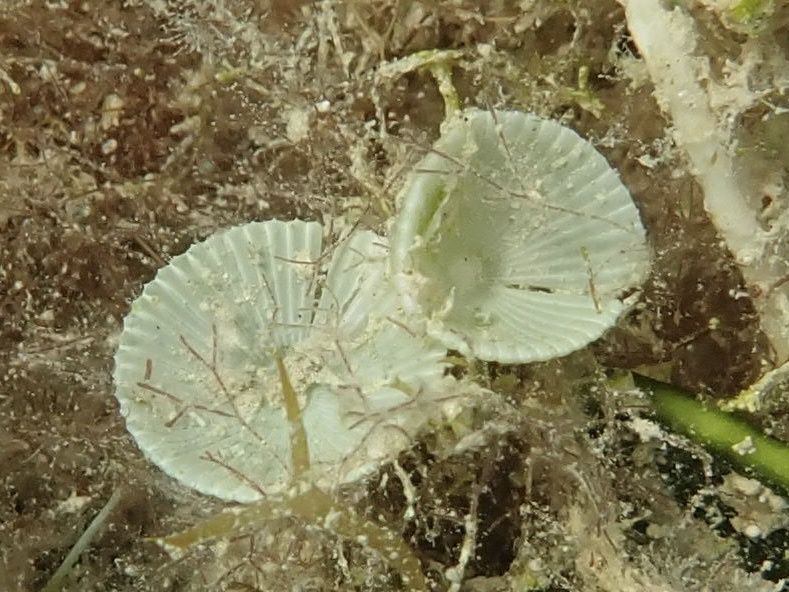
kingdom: Plantae
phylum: Chlorophyta
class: Ulvophyceae
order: Dasycladales
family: Polyphysaceae
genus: Acetabularia
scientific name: Acetabularia crenulata
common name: White mermaid's wine glass
